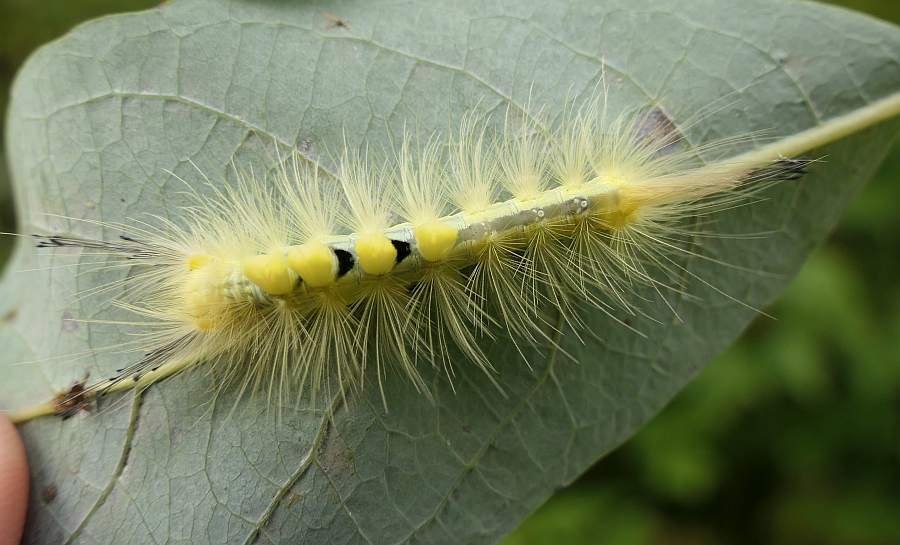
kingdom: Animalia
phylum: Arthropoda
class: Insecta
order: Lepidoptera
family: Erebidae
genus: Orgyia
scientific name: Orgyia definita
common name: Definite tussock moth
